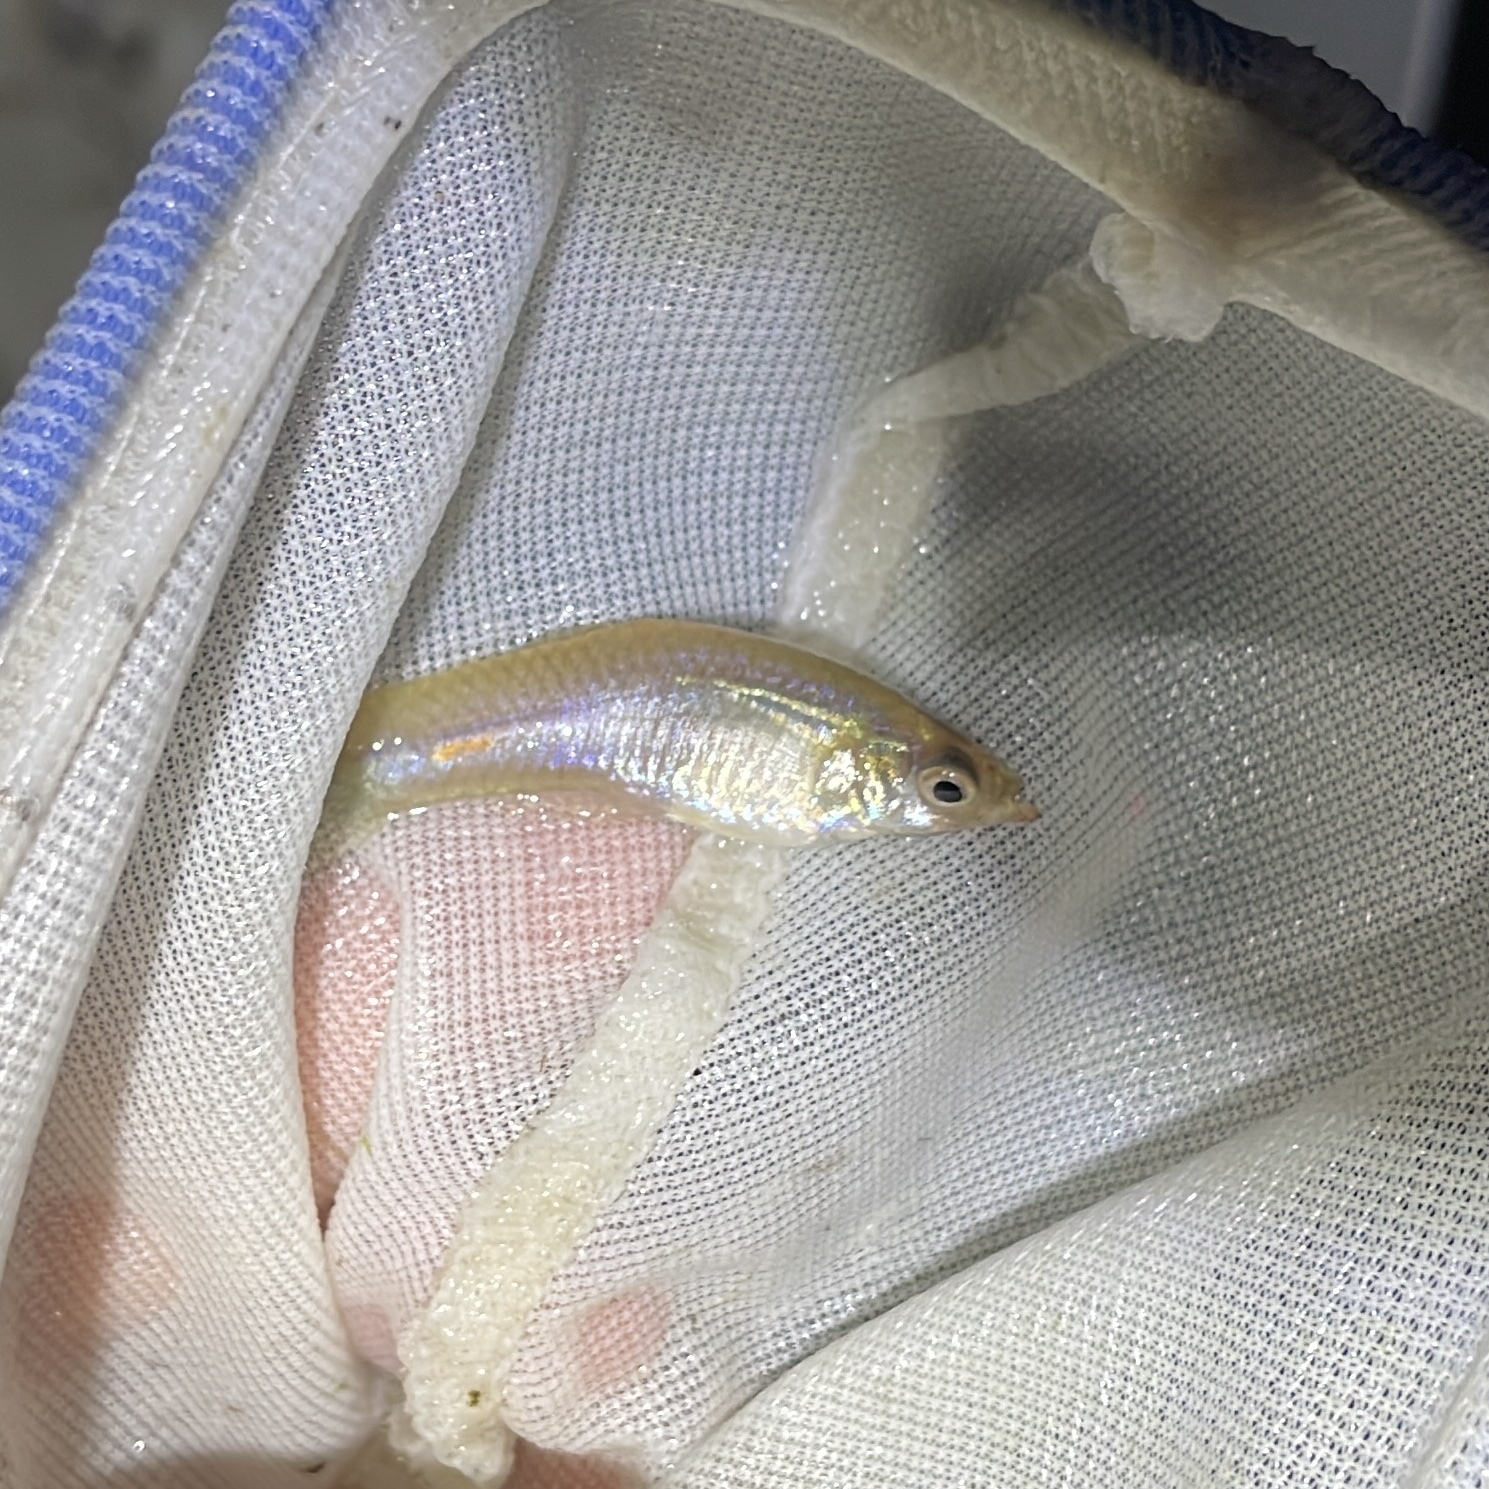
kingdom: Animalia
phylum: Chordata
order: Cyprinodontiformes
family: Poeciliidae
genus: Poecilia
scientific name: Poecilia reticulata
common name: Guppy
